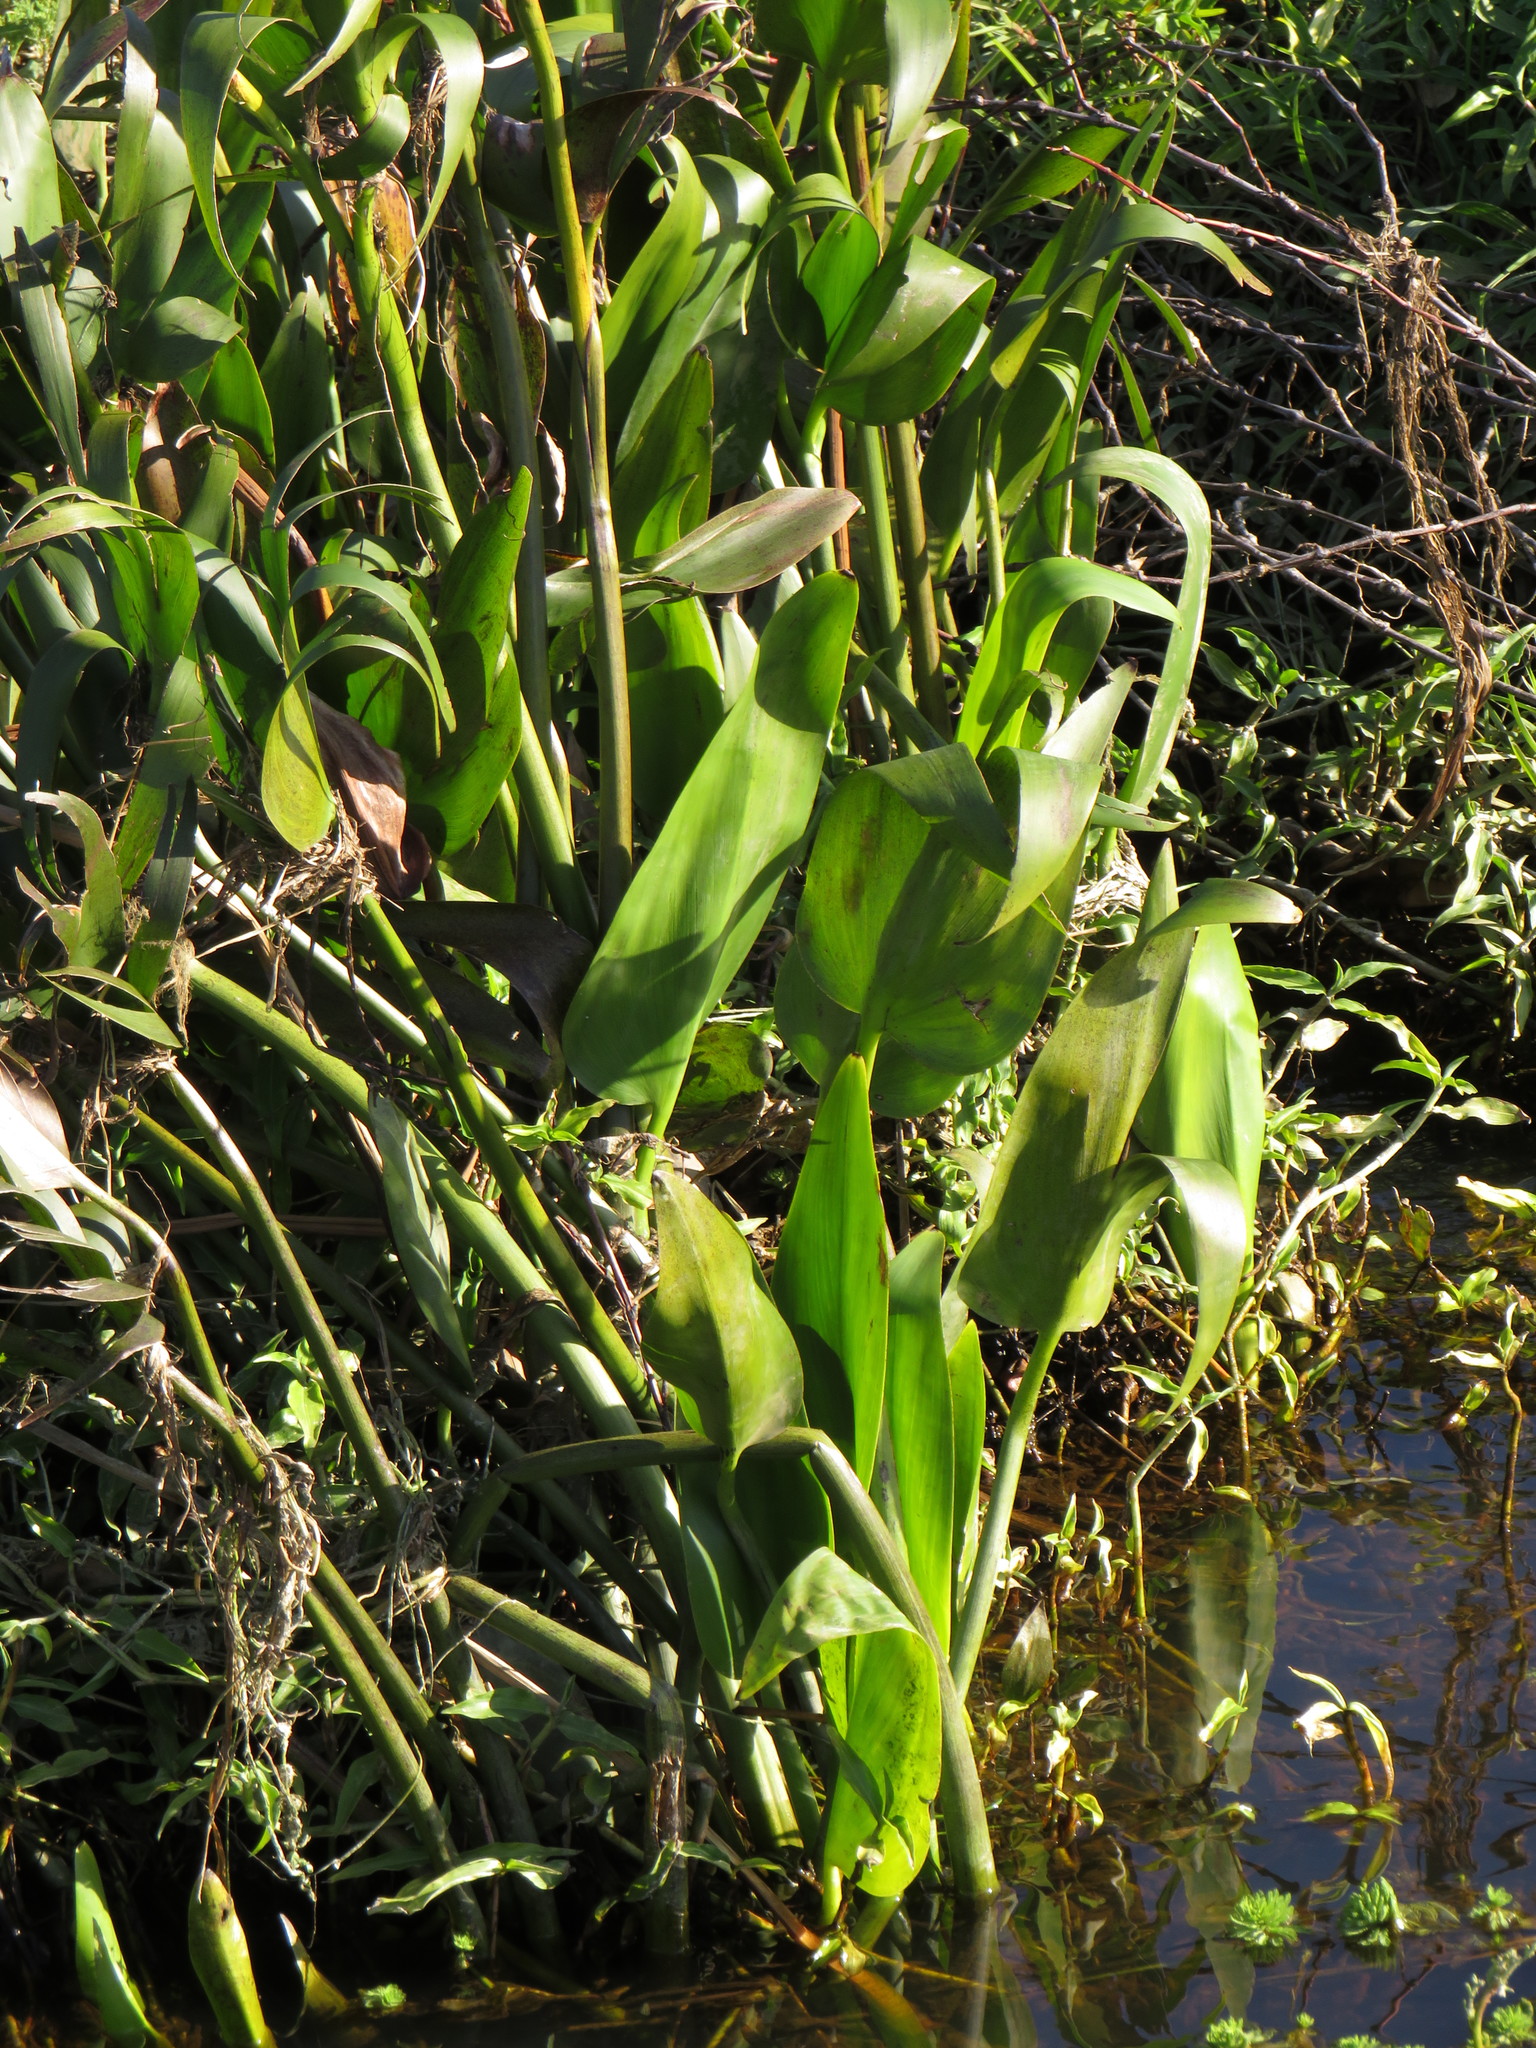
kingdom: Plantae
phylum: Tracheophyta
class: Liliopsida
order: Commelinales
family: Pontederiaceae
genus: Pontederia
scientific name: Pontederia cordata
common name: Pickerelweed
